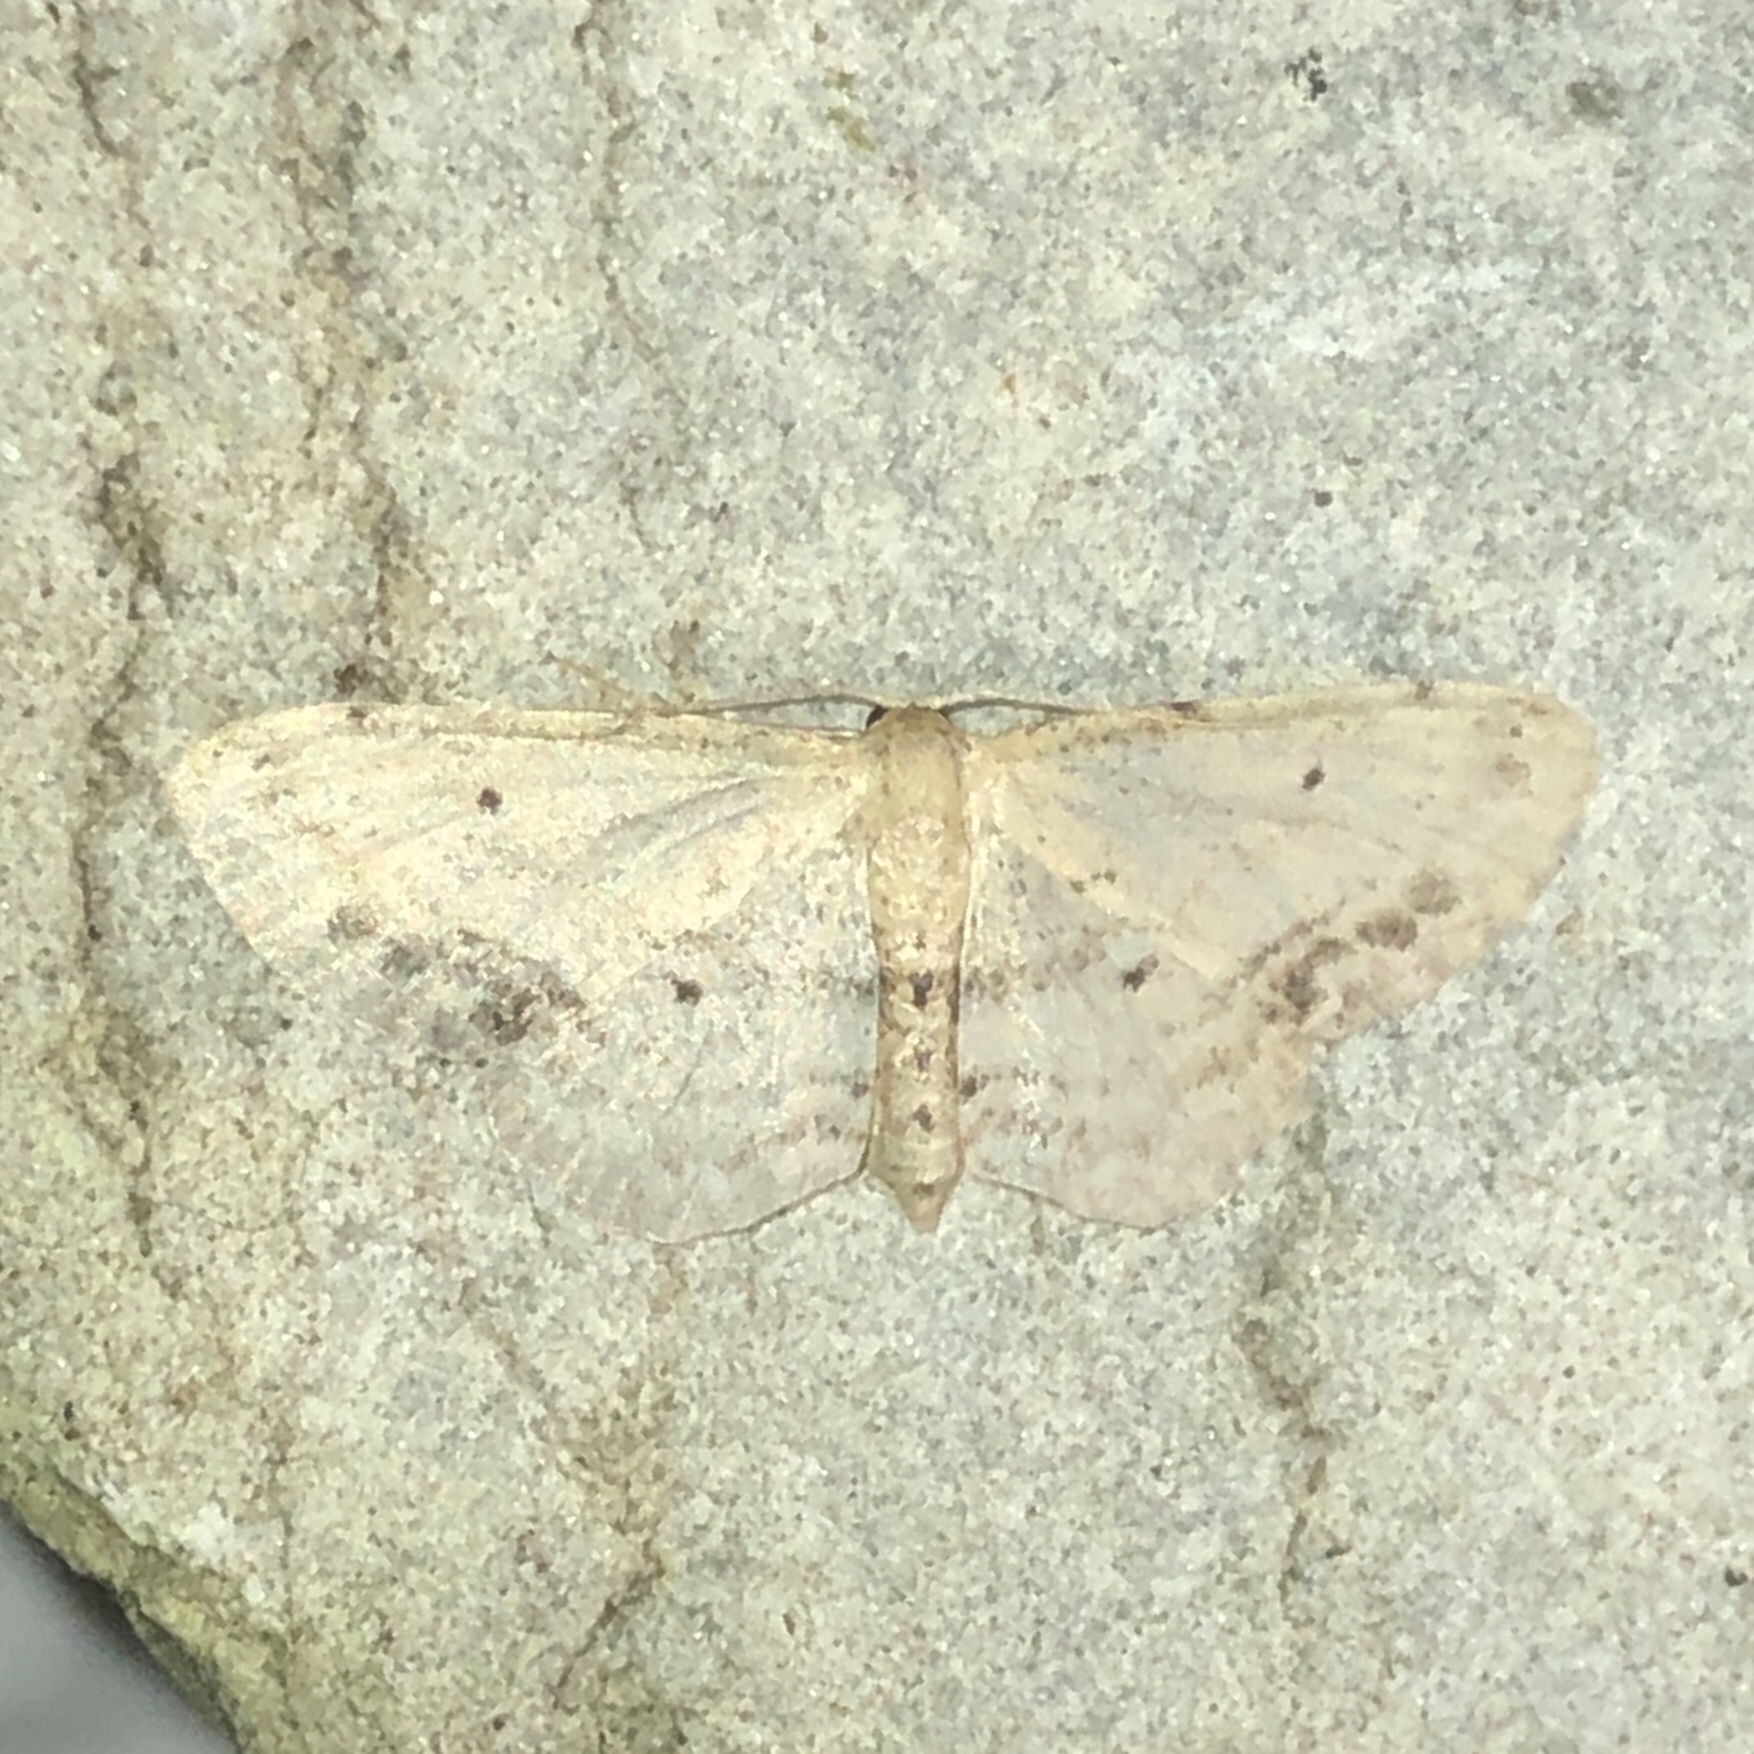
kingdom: Animalia
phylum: Arthropoda
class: Insecta
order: Lepidoptera
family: Geometridae
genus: Idaea
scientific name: Idaea dimidiata
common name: Single-dotted wave
